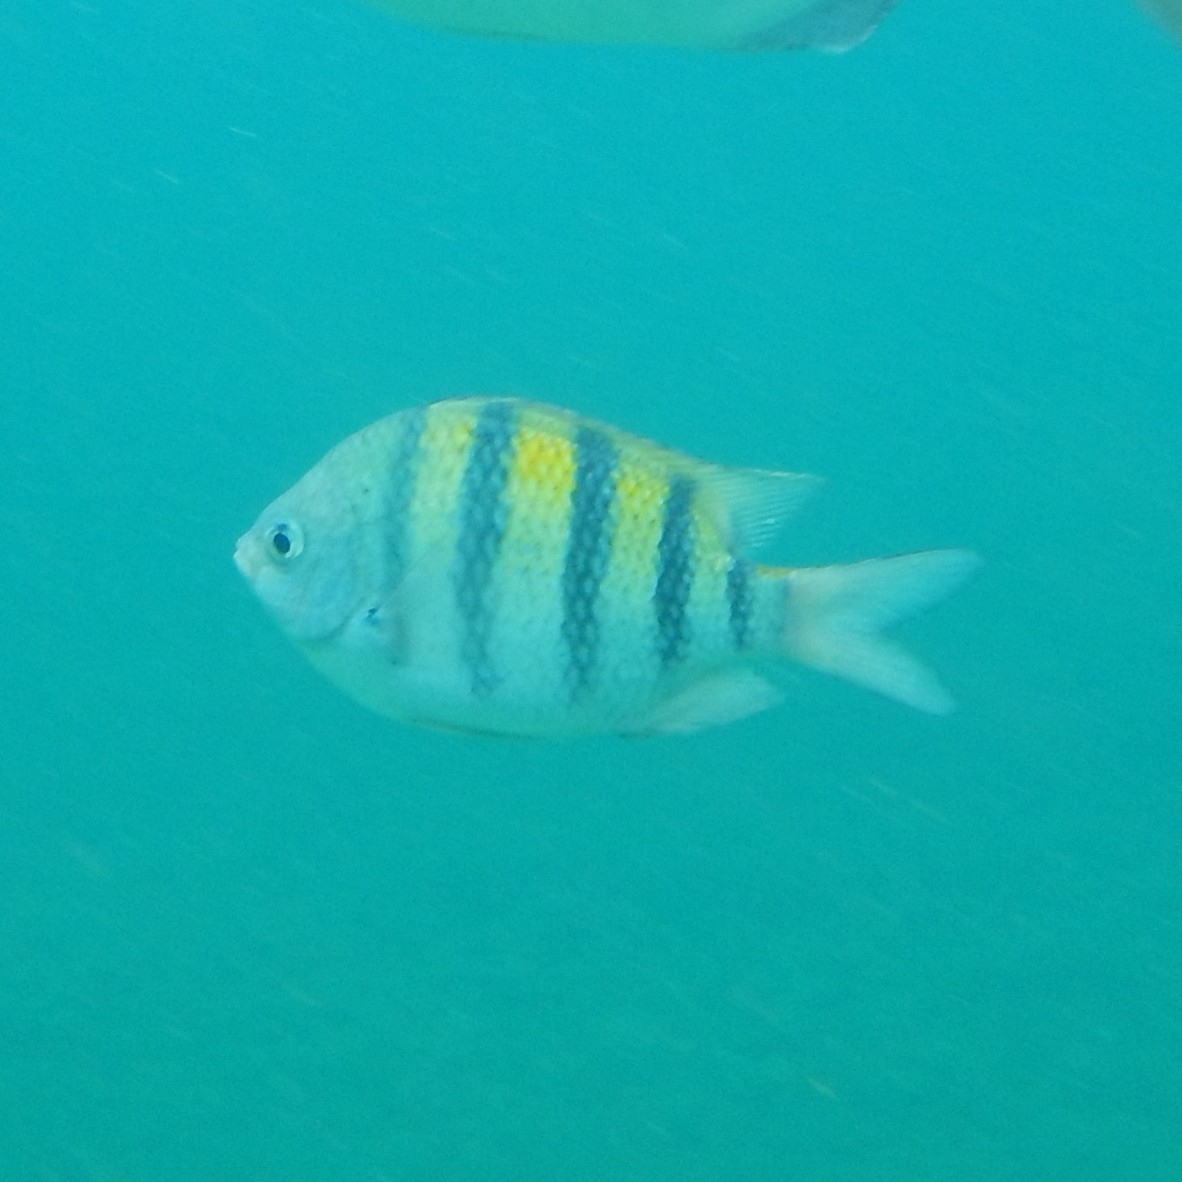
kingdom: Animalia
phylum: Chordata
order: Perciformes
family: Pomacentridae
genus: Abudefduf
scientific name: Abudefduf saxatilis
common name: Sergeant major
